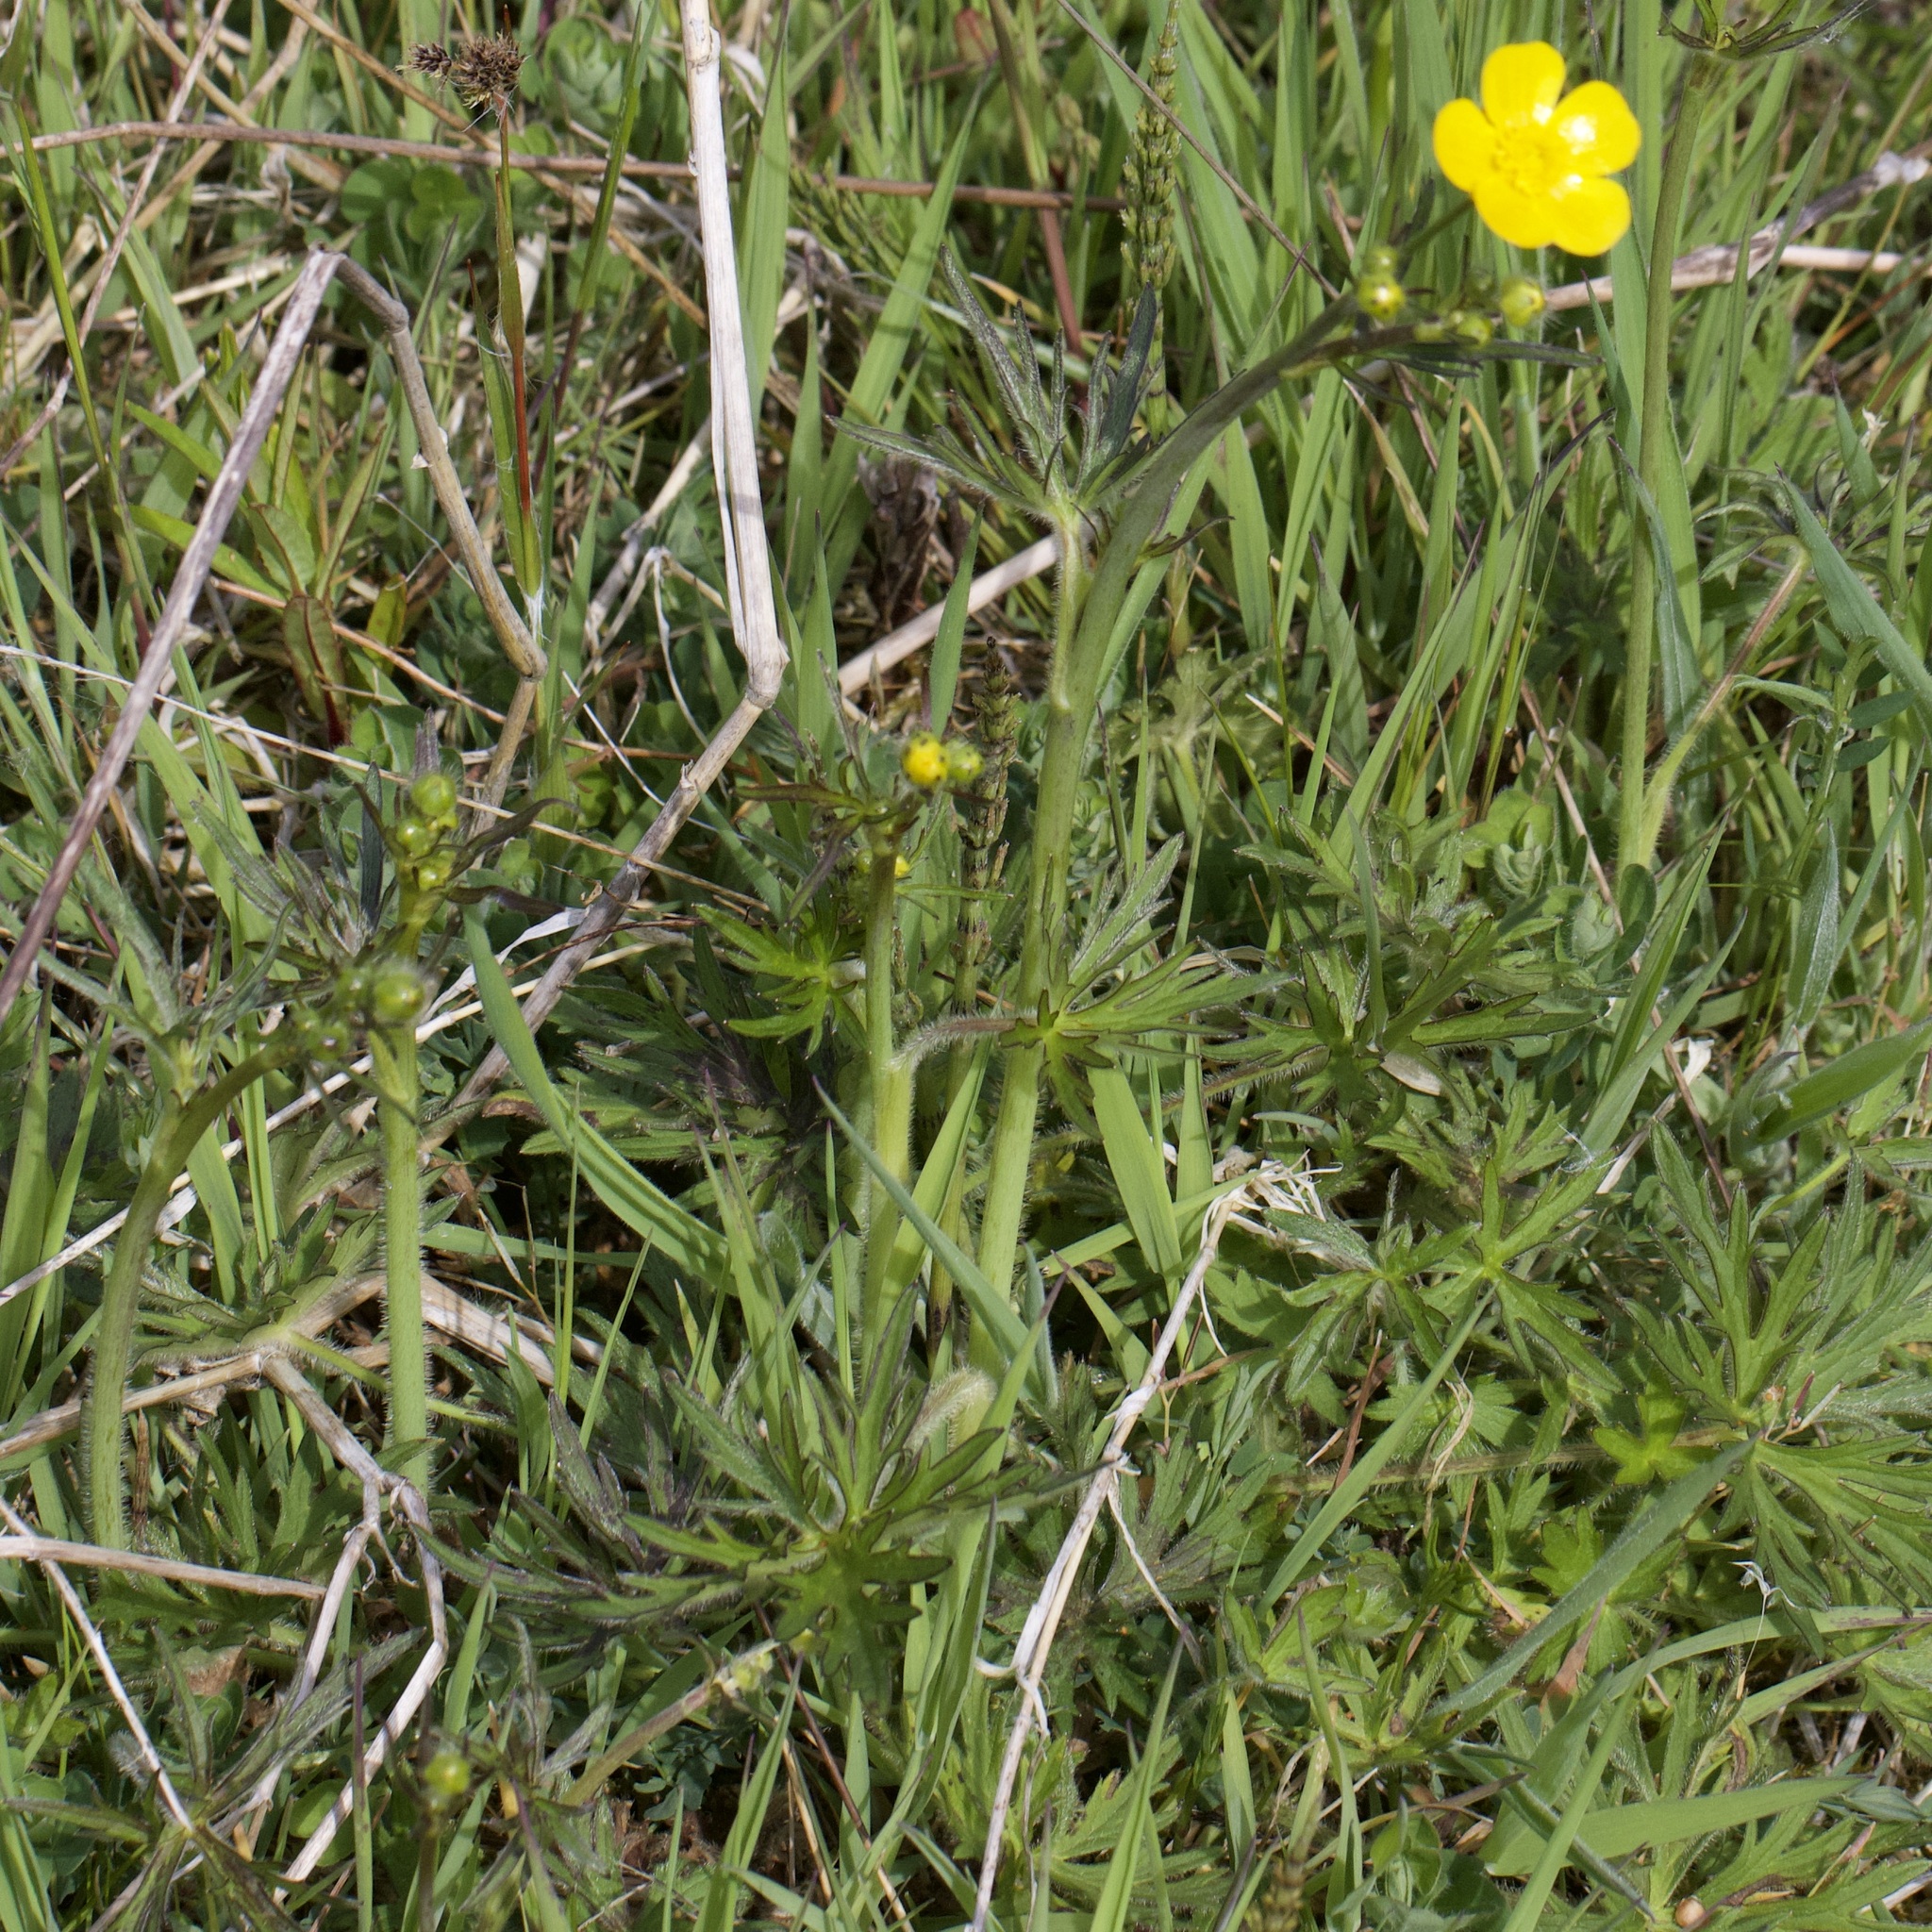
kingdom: Plantae
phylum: Tracheophyta
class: Magnoliopsida
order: Ranunculales
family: Ranunculaceae
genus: Ranunculus
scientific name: Ranunculus acris
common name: Meadow buttercup
